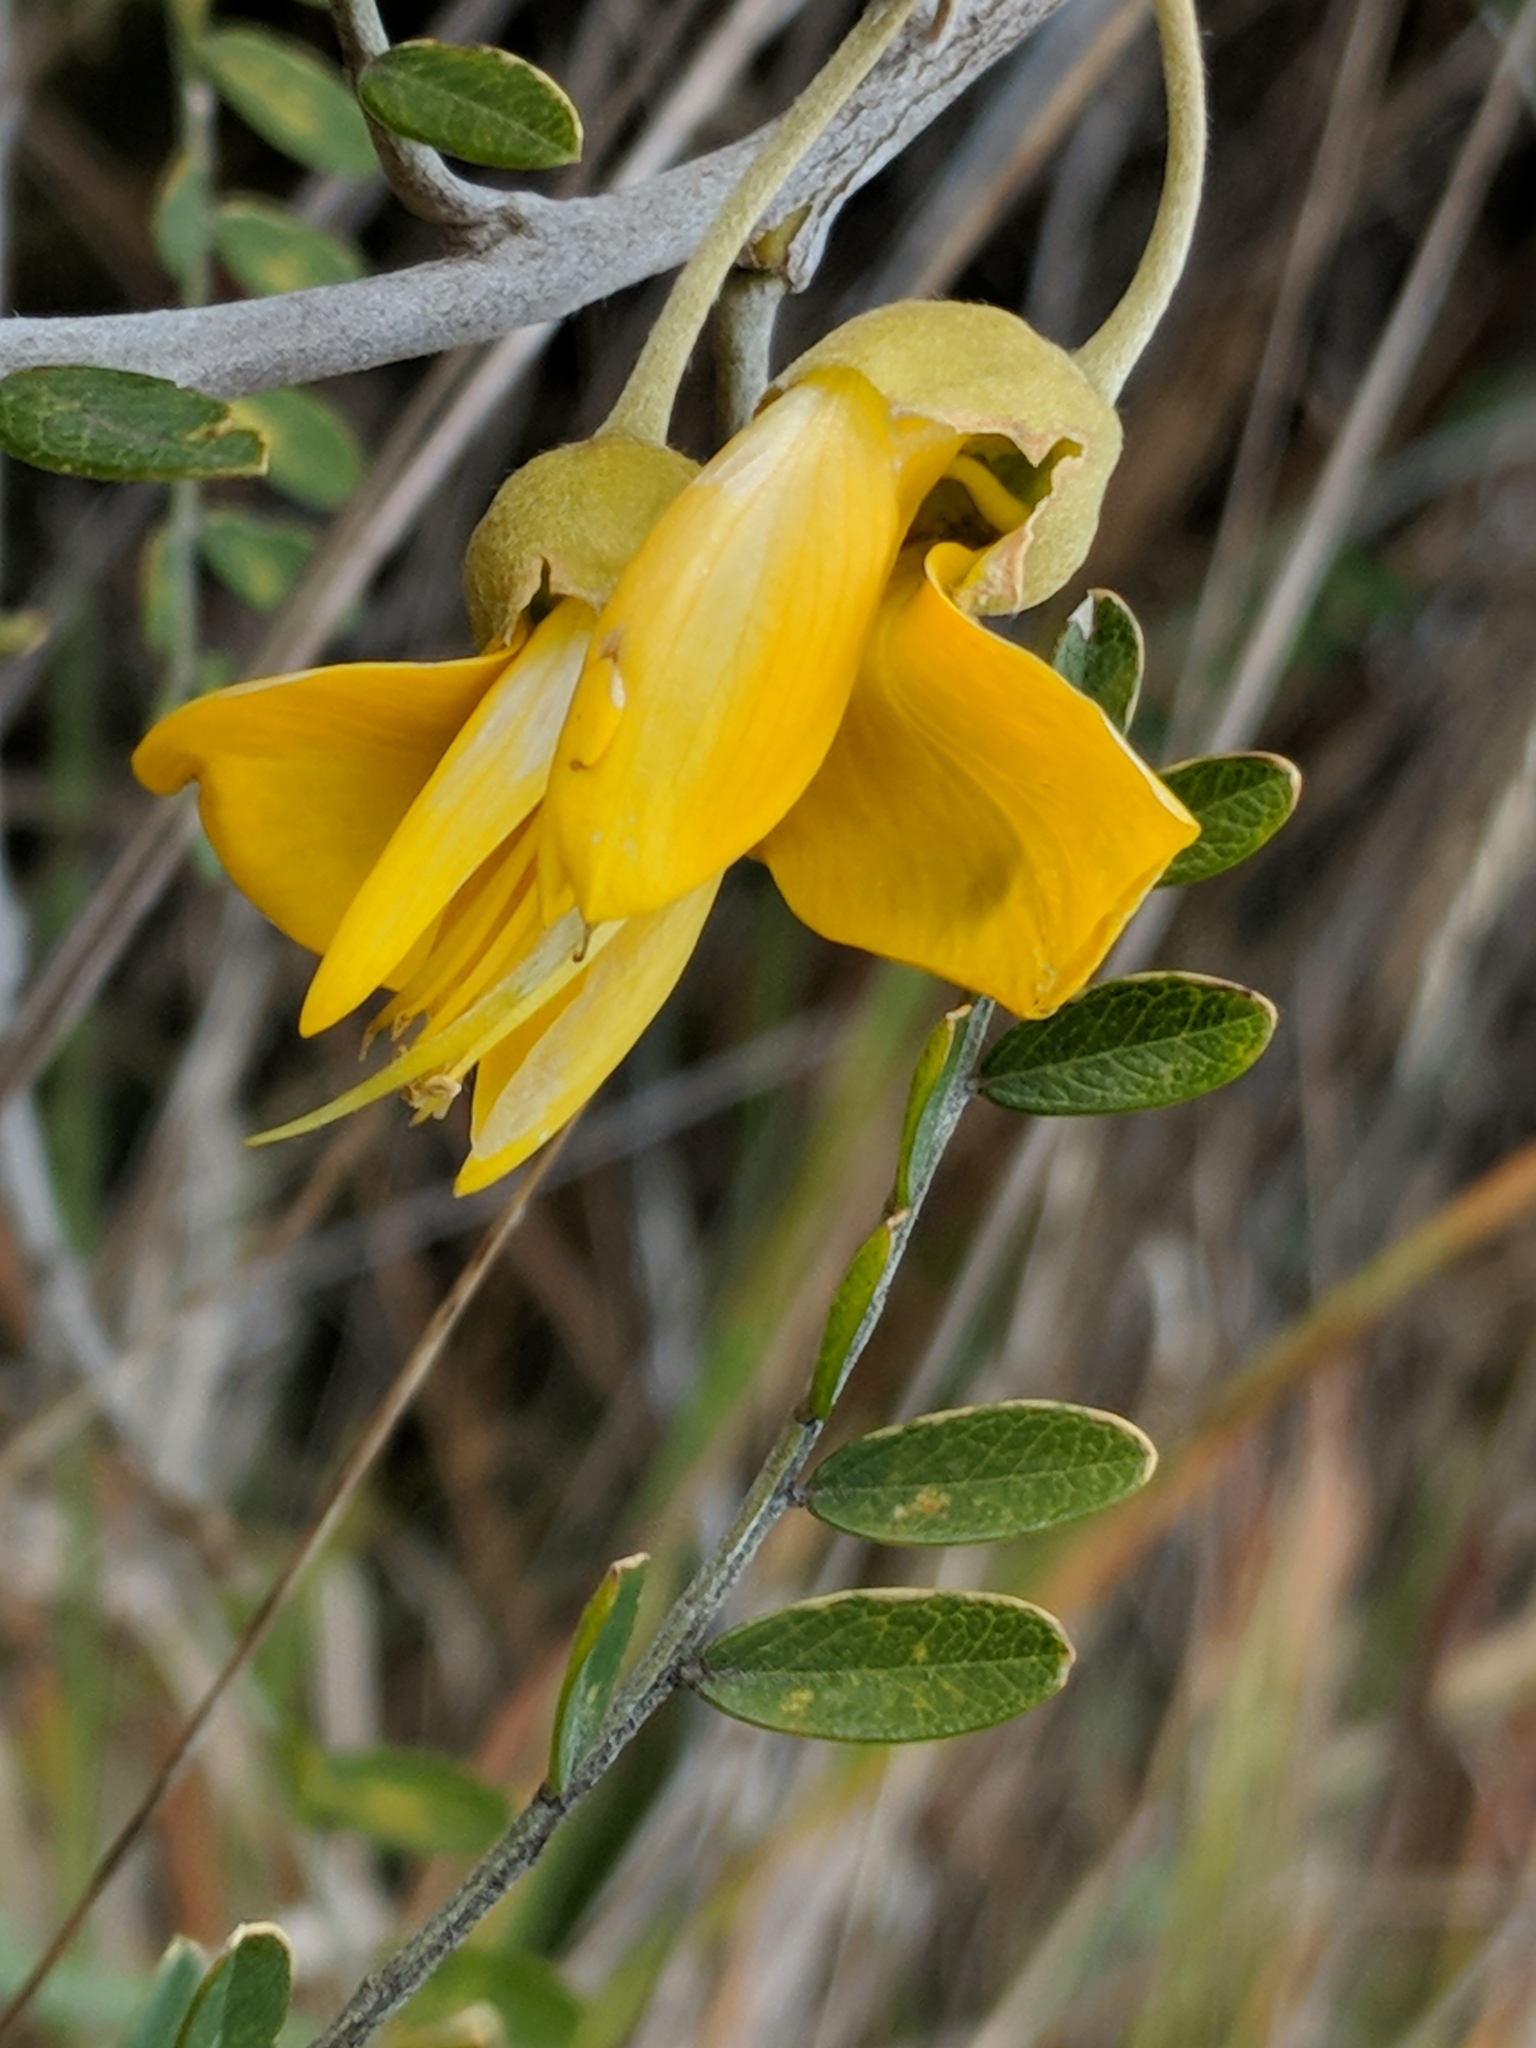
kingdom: Plantae
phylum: Tracheophyta
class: Magnoliopsida
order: Fabales
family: Fabaceae
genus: Sophora
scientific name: Sophora chrysophylla
